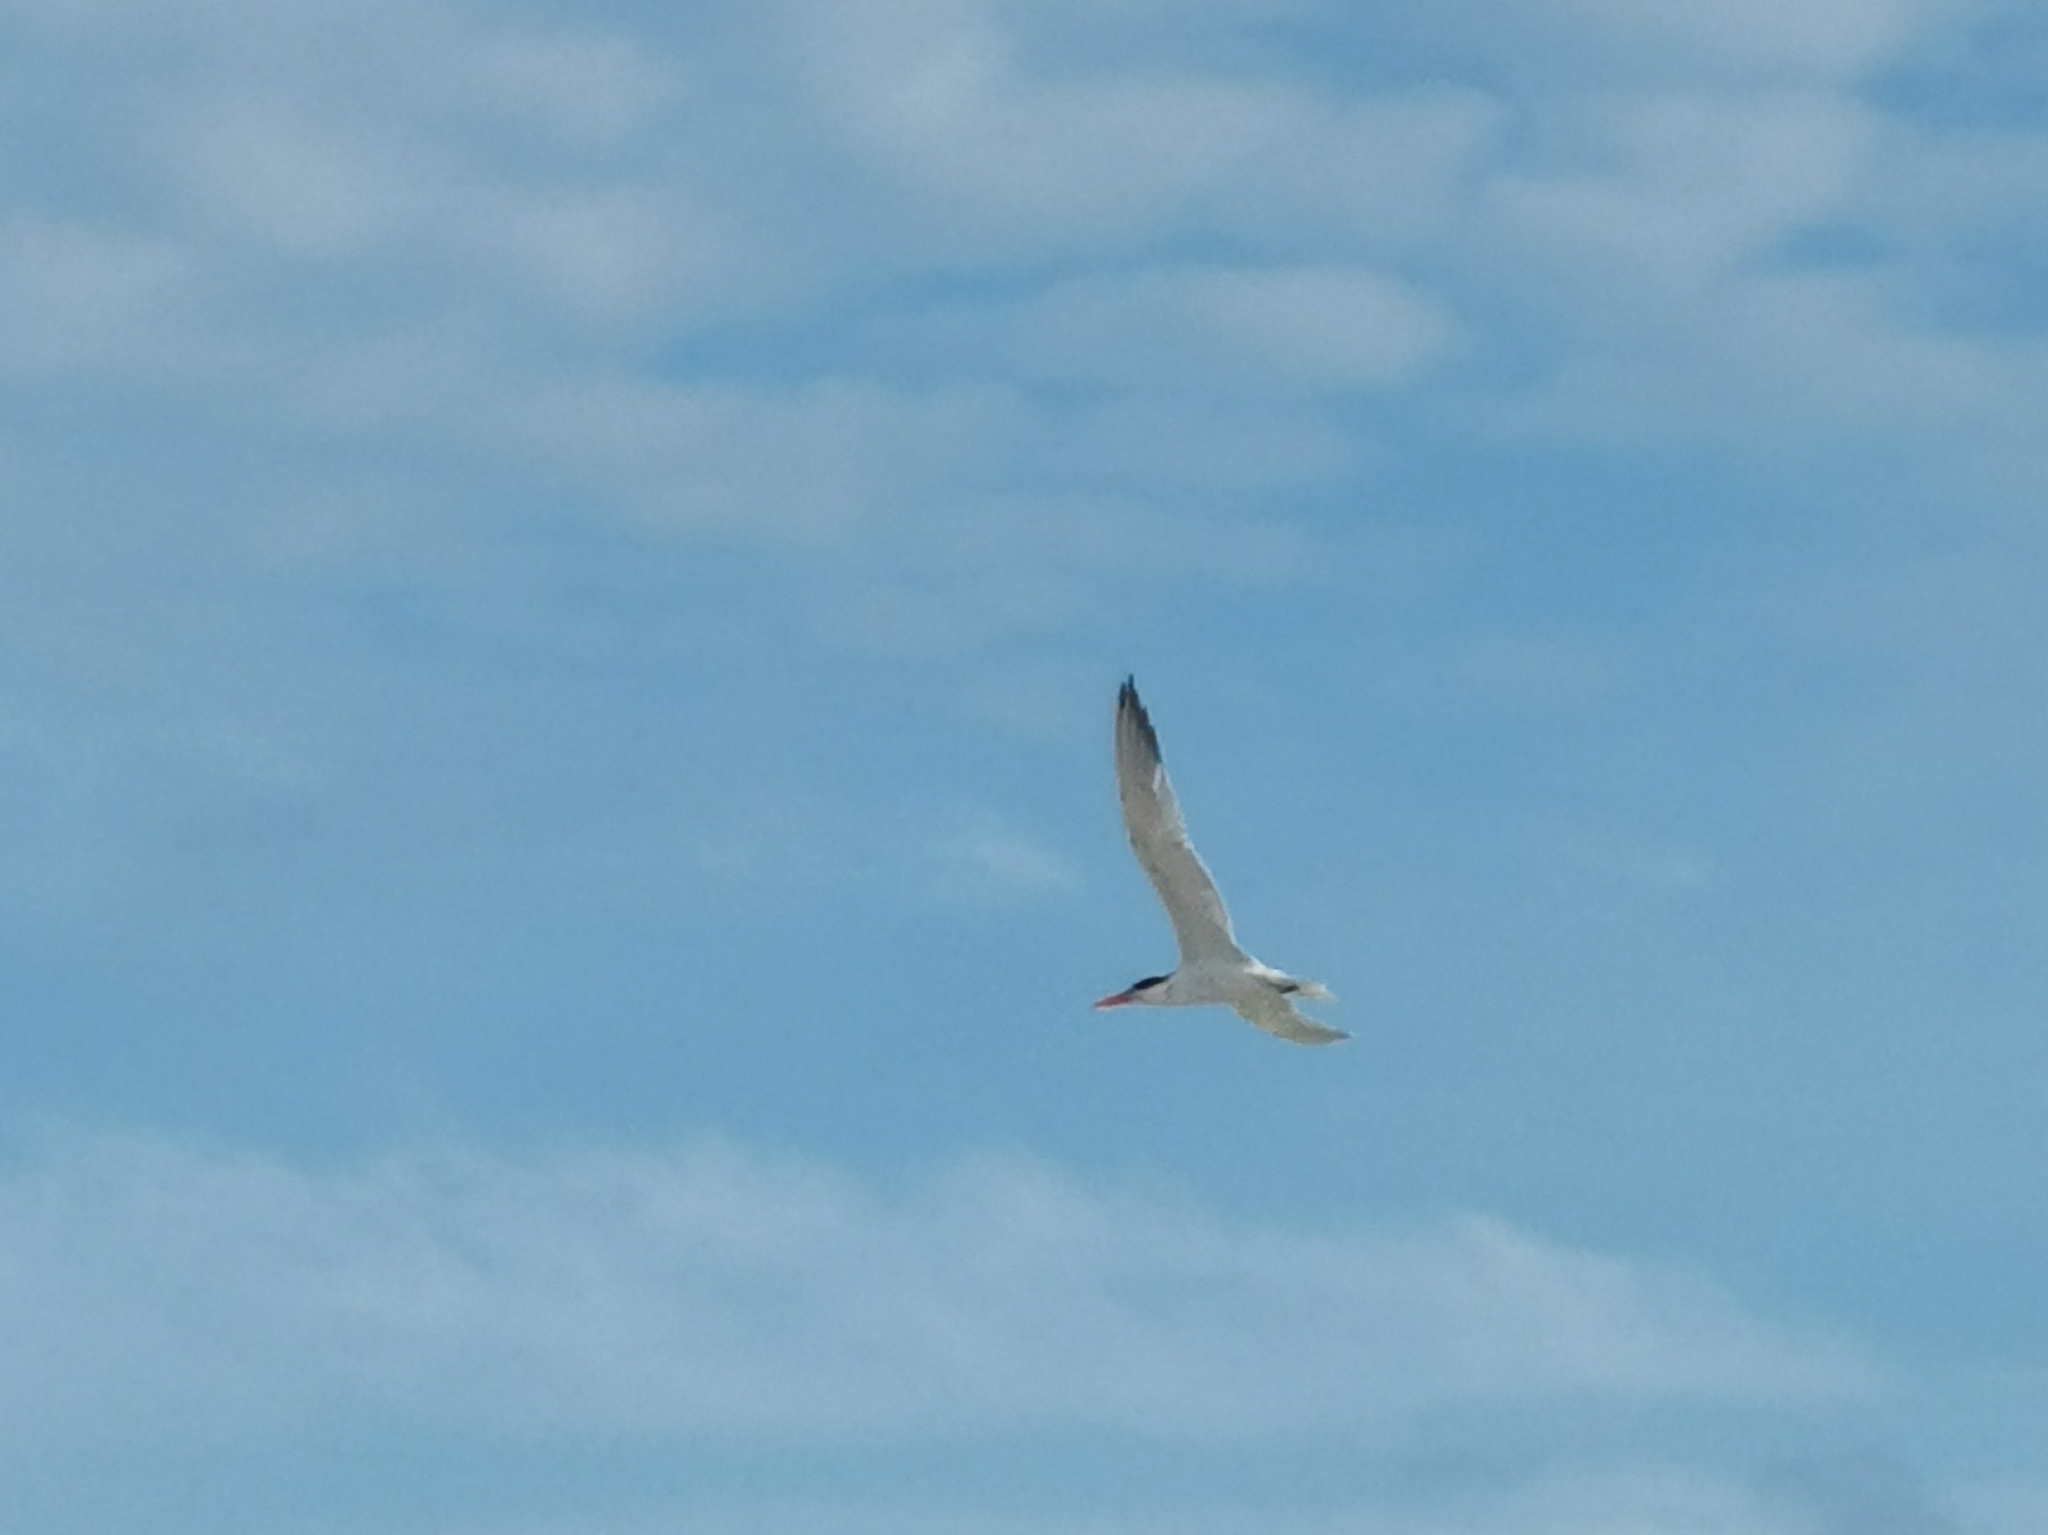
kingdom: Animalia
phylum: Chordata
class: Aves
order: Charadriiformes
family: Laridae
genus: Thalasseus
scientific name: Thalasseus maximus
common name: Royal tern
